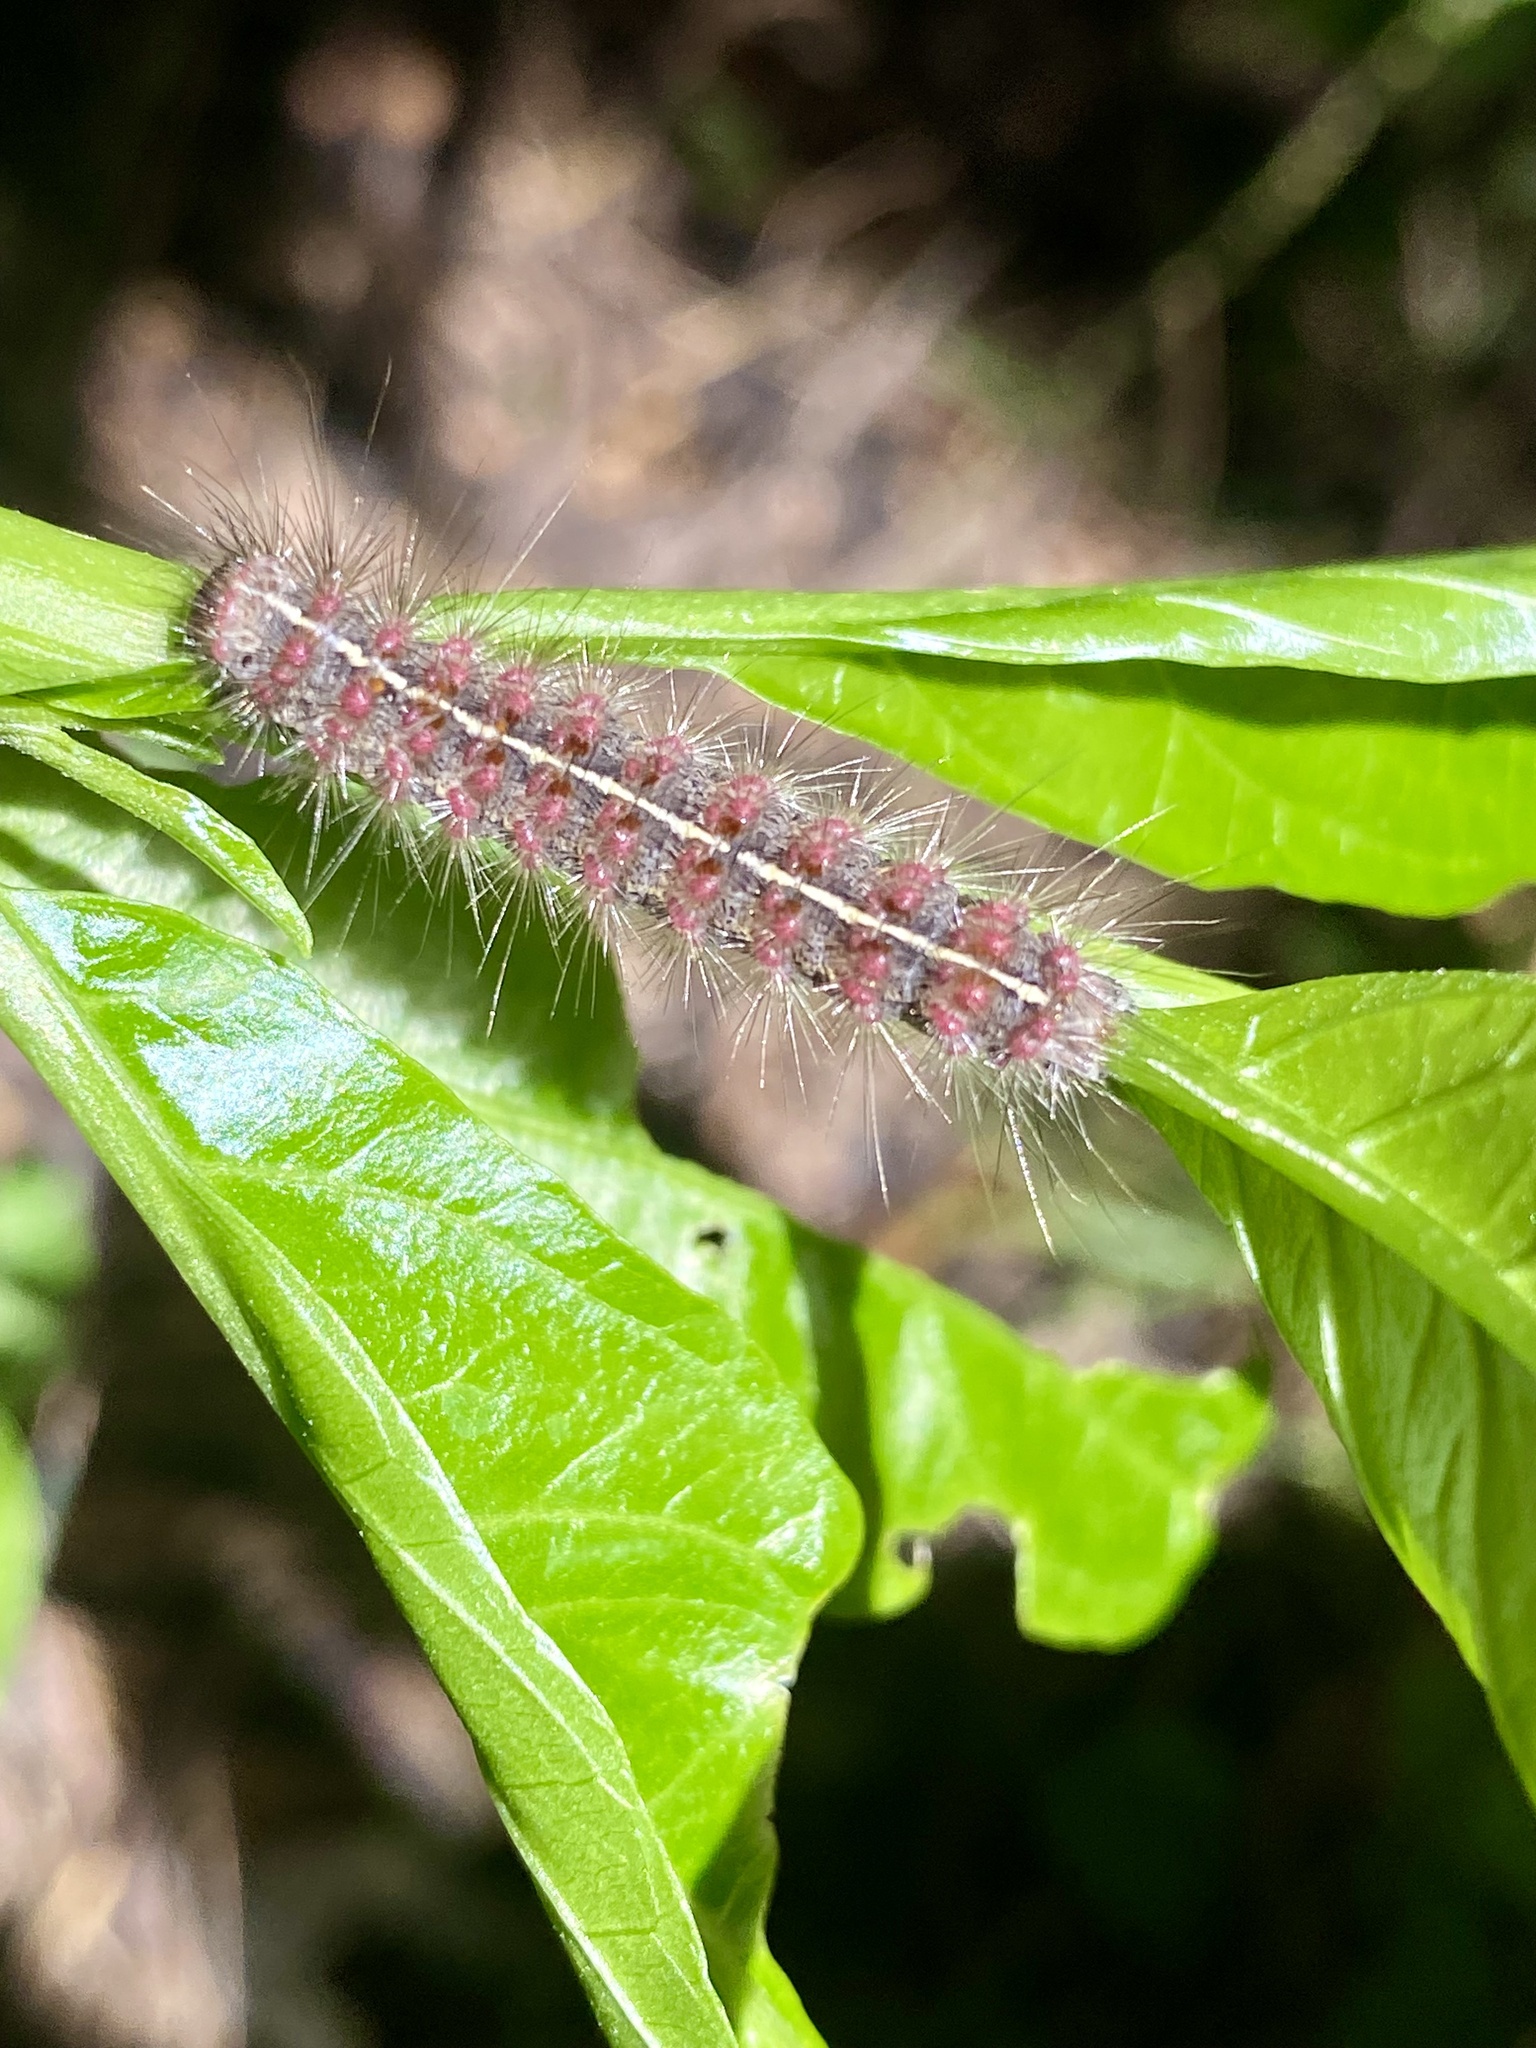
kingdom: Animalia
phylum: Arthropoda
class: Insecta
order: Lepidoptera
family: Erebidae
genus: Paracles
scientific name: Paracles fusca
